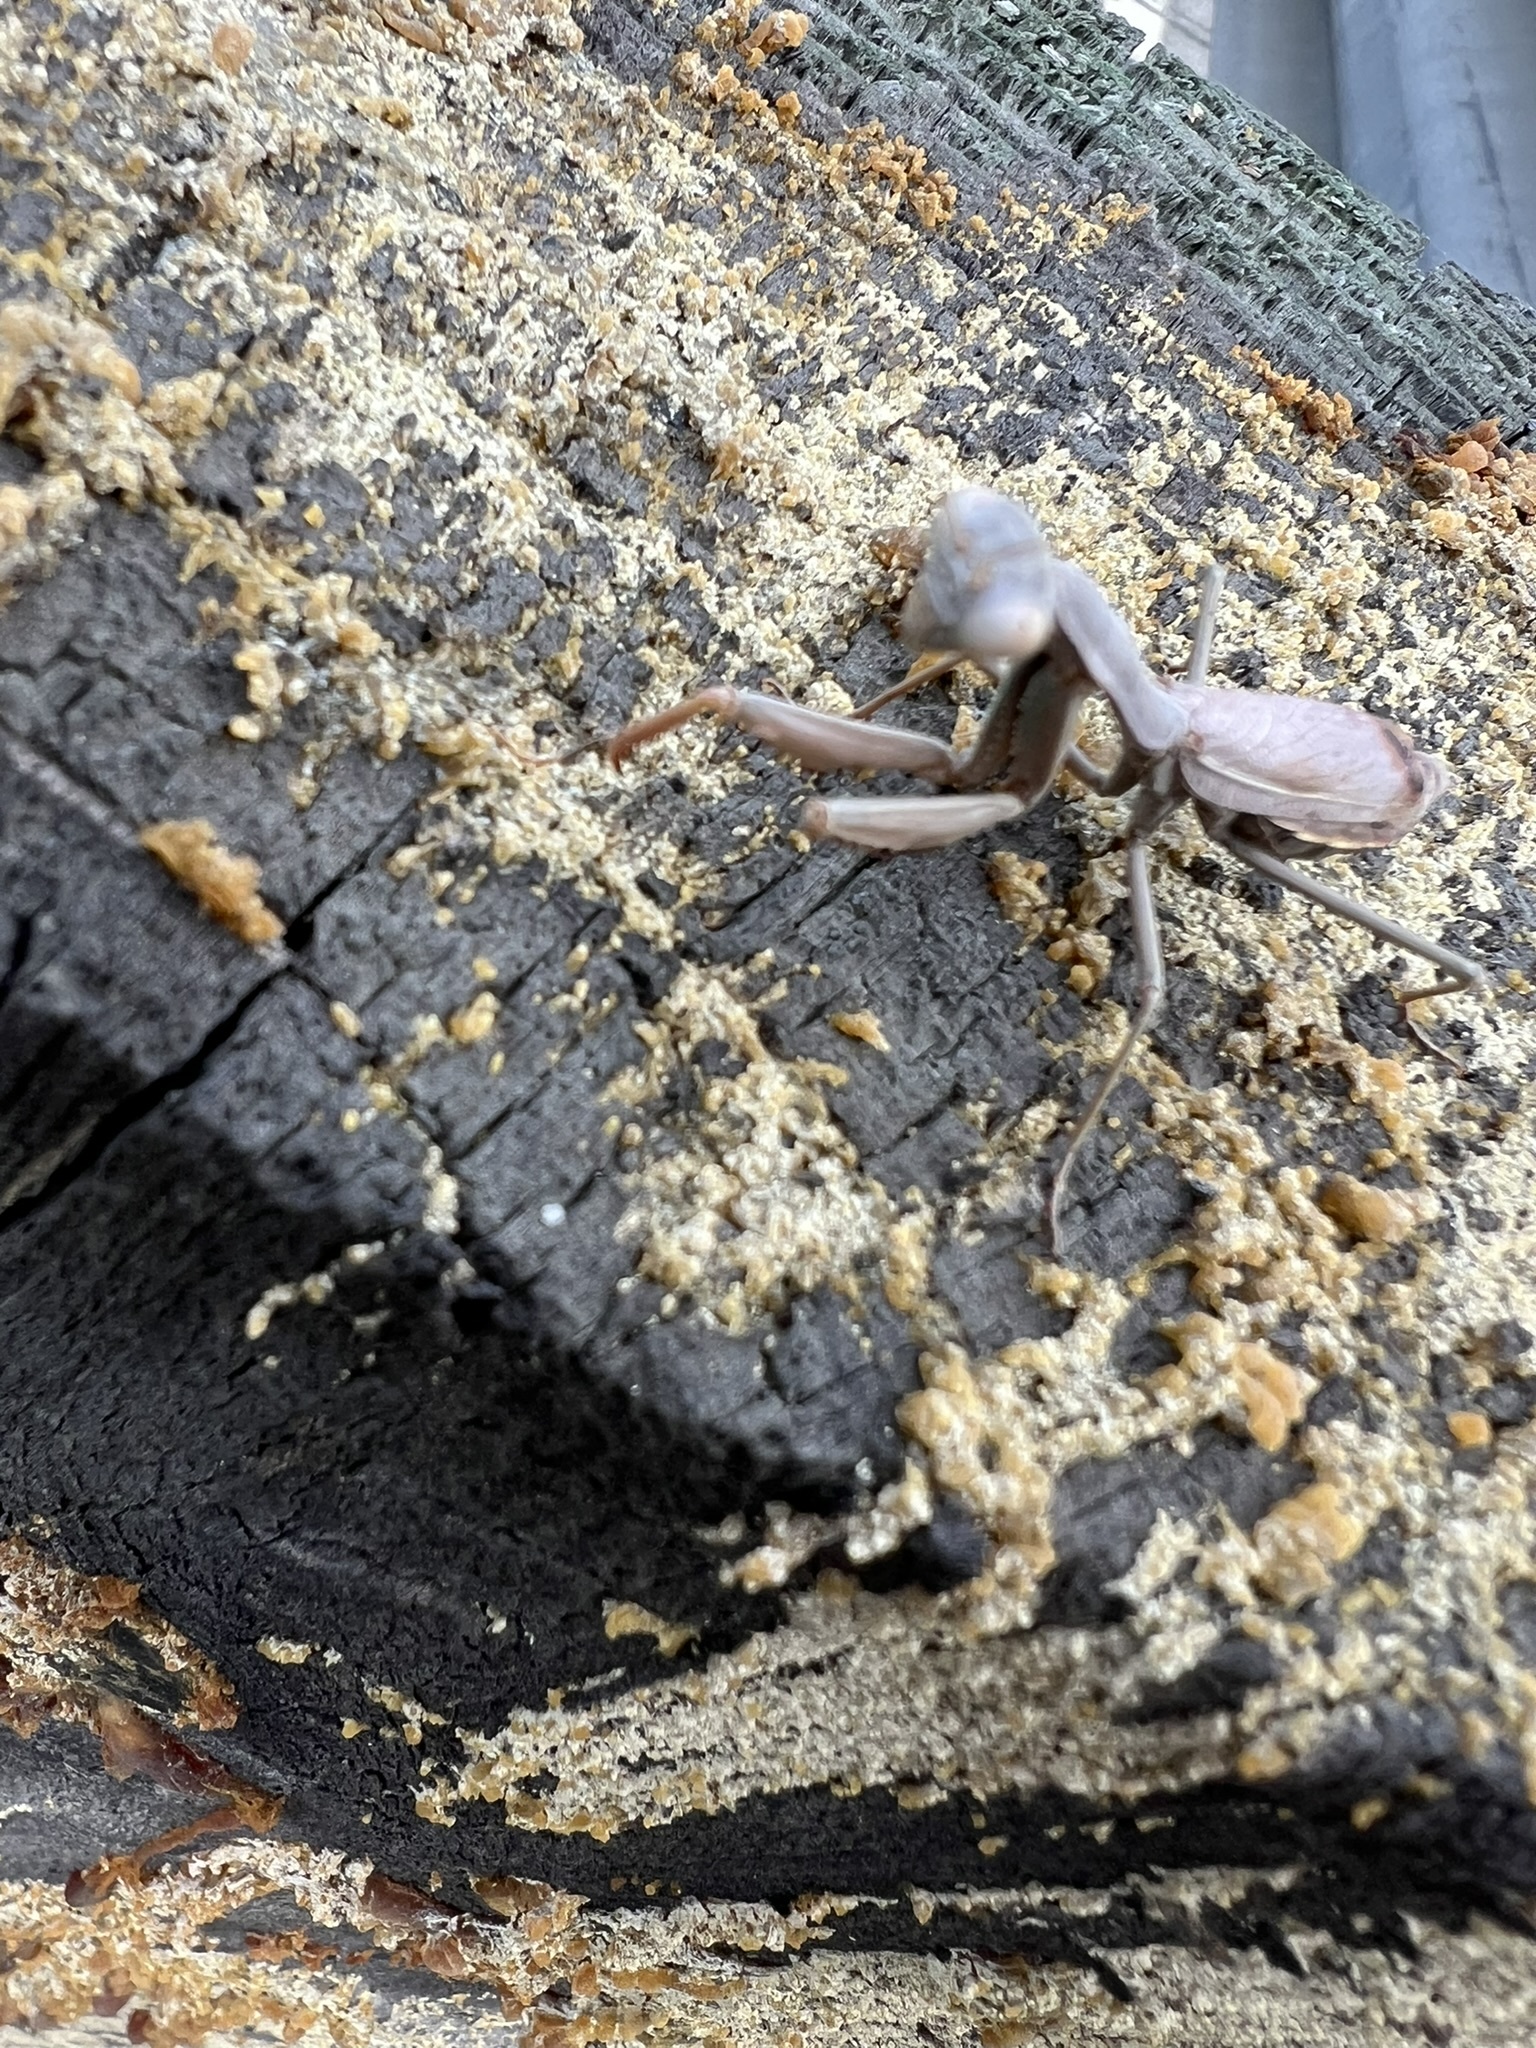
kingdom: Animalia
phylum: Arthropoda
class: Insecta
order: Mantodea
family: Eremiaphilidae
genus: Iris
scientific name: Iris oratoria
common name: Mediterranean mantis
